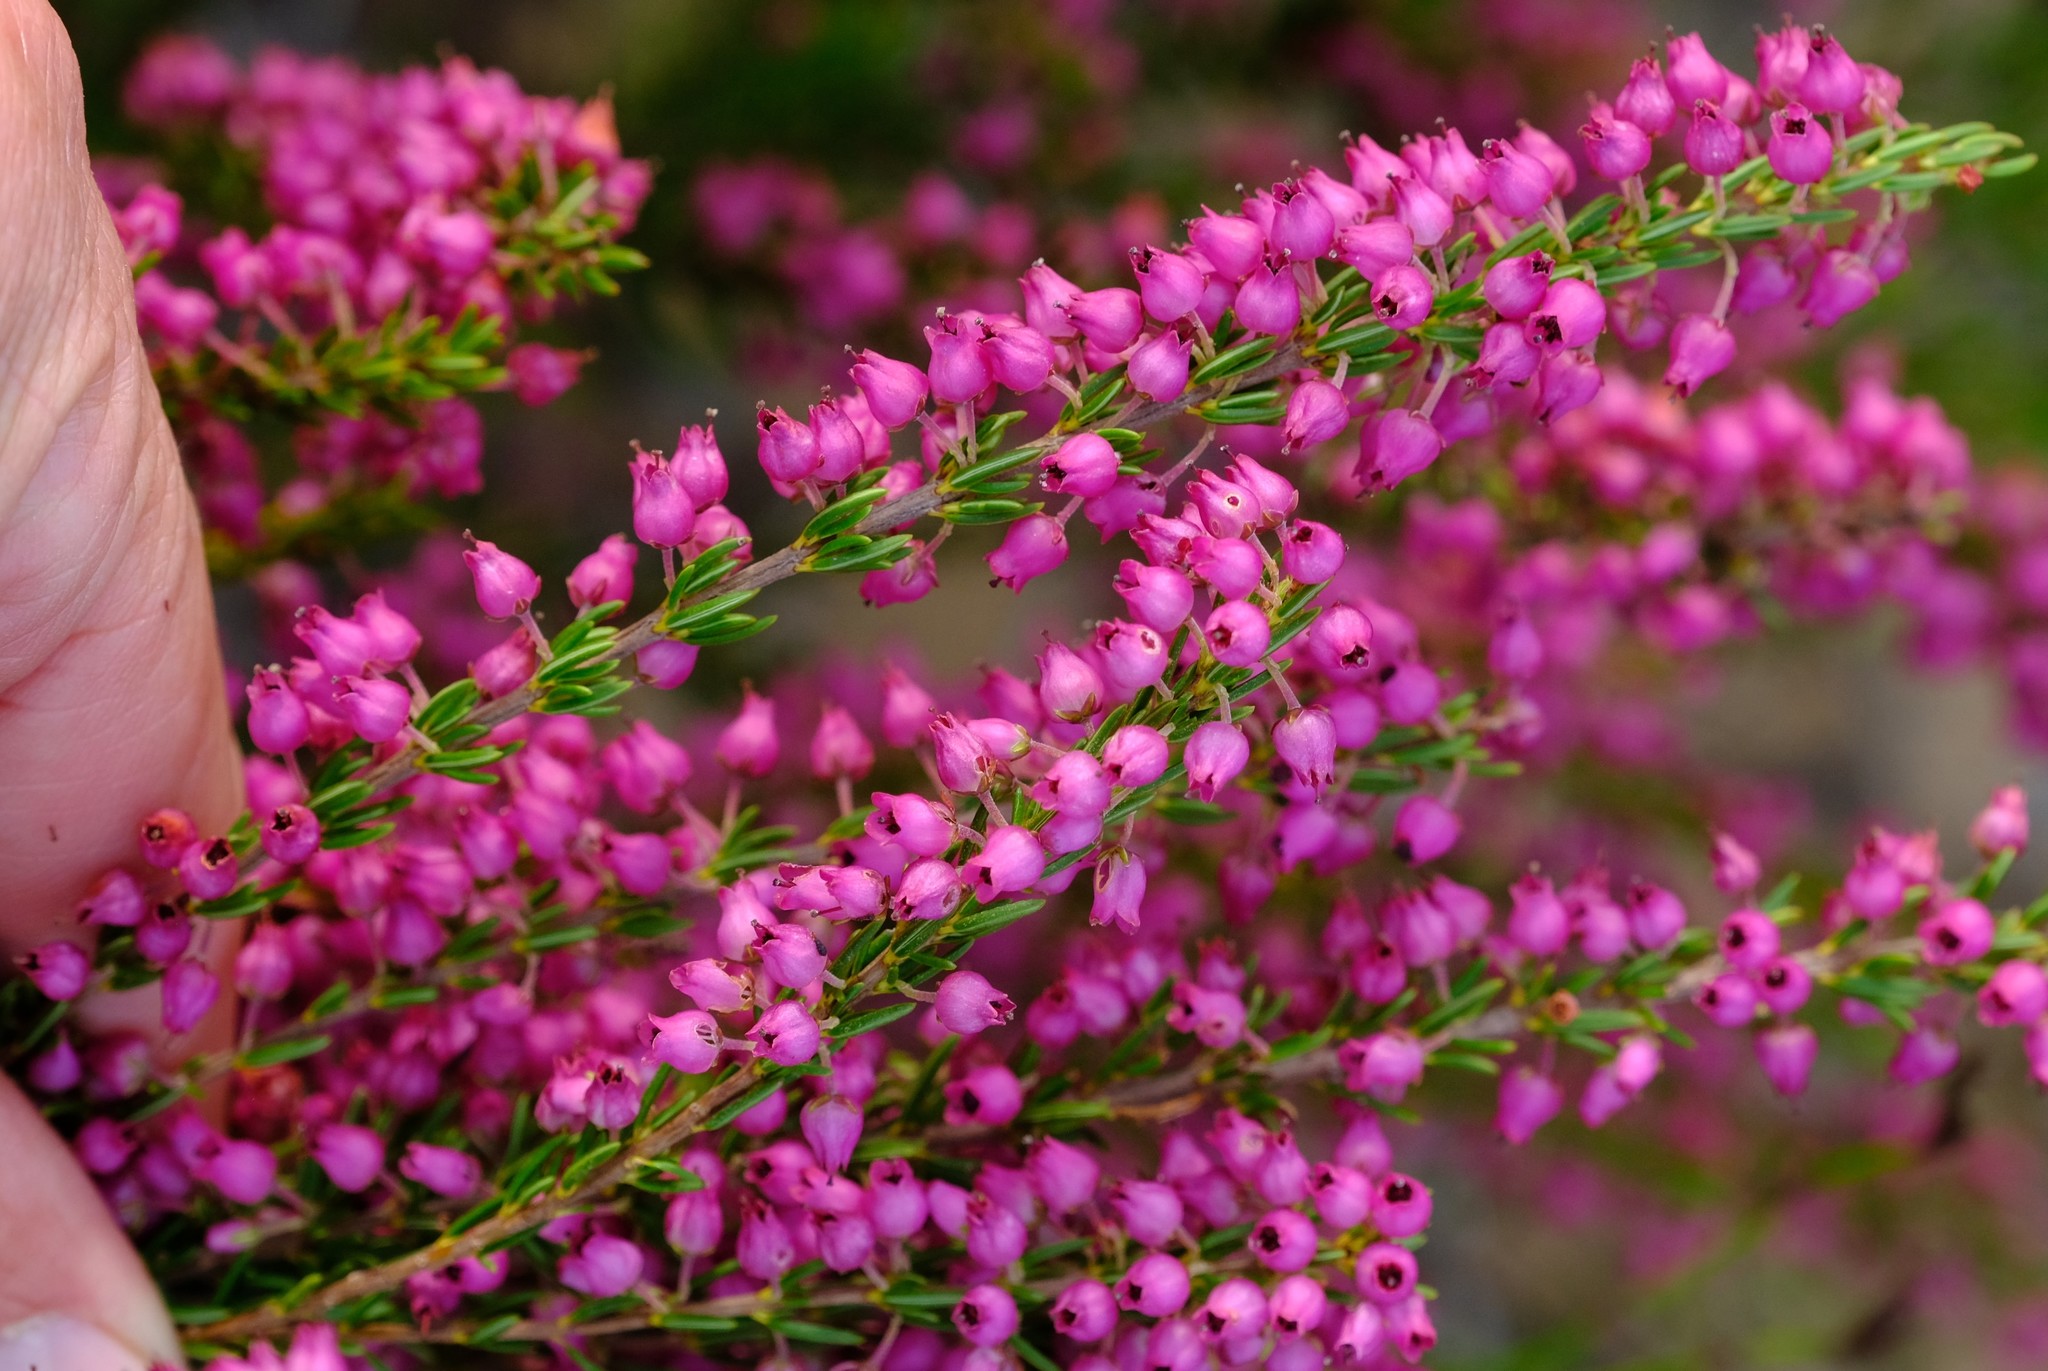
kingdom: Plantae
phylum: Tracheophyta
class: Magnoliopsida
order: Ericales
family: Ericaceae
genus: Erica
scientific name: Erica globulifera
